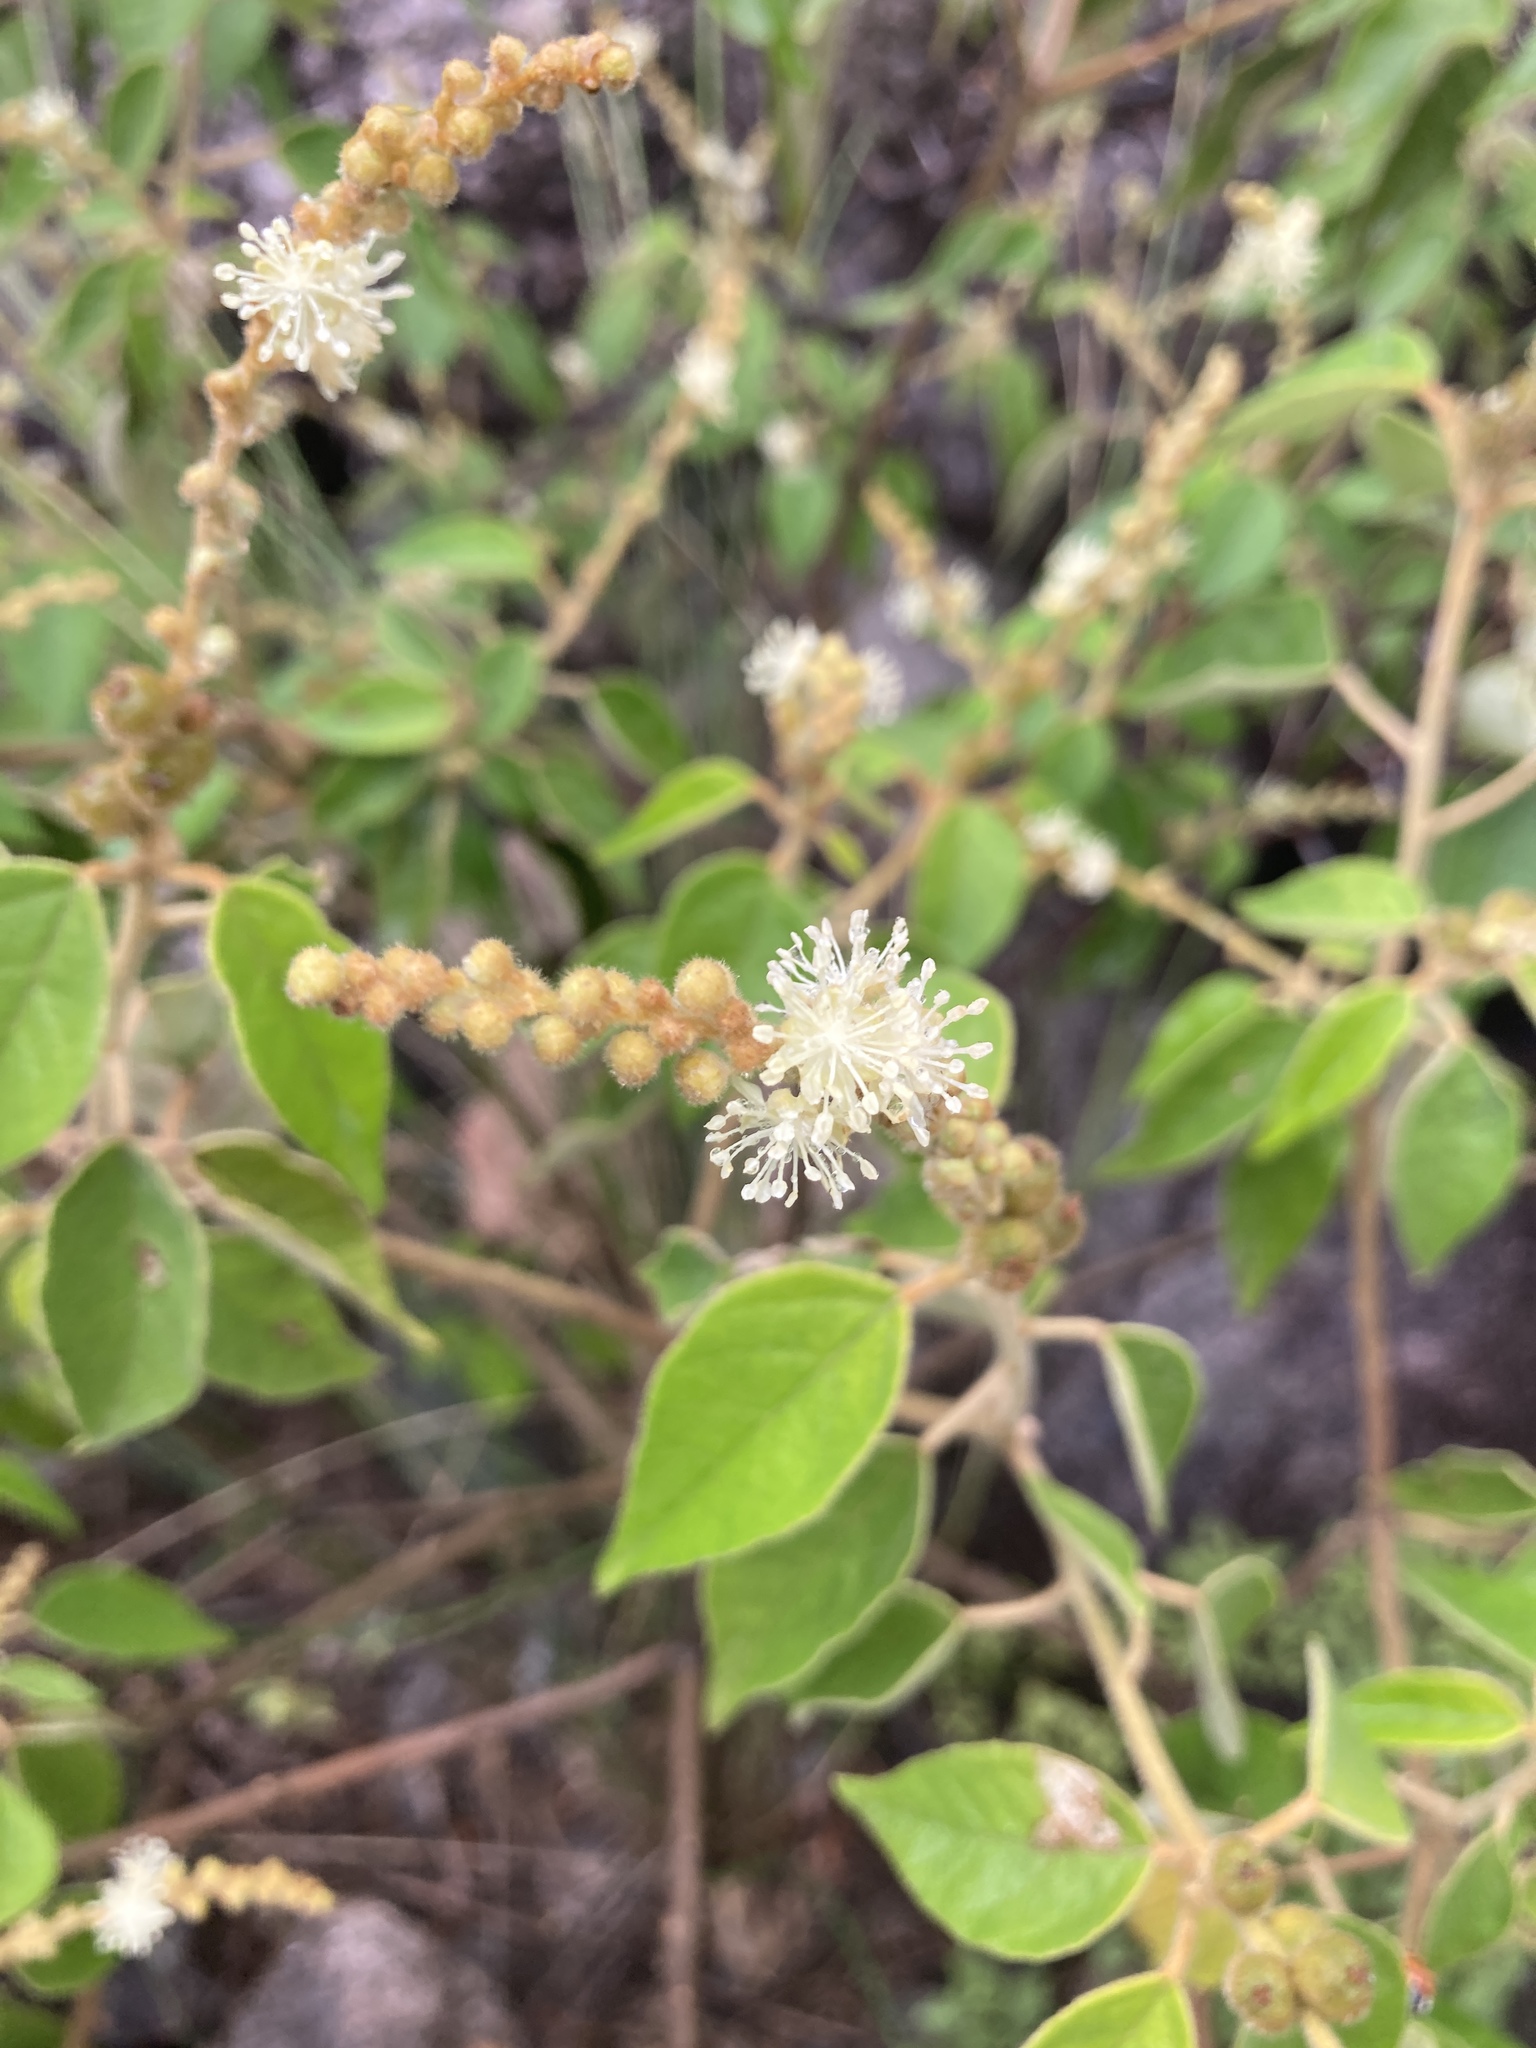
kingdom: Plantae
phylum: Tracheophyta
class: Magnoliopsida
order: Malpighiales
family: Euphorbiaceae
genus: Croton
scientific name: Croton lachnostachyus
